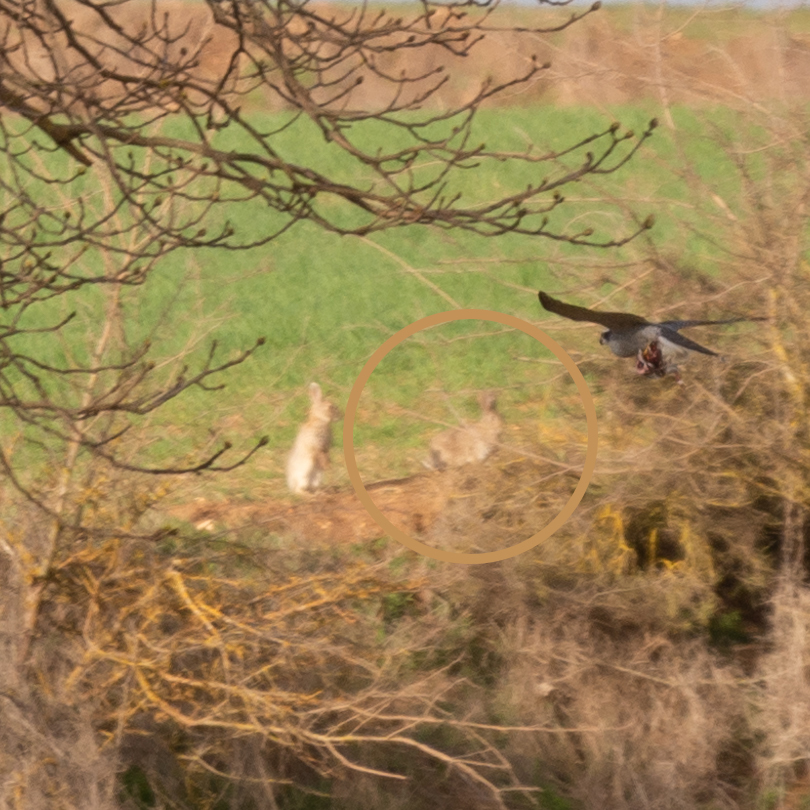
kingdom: Animalia
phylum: Chordata
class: Mammalia
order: Lagomorpha
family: Leporidae
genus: Oryctolagus
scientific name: Oryctolagus cuniculus
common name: European rabbit
